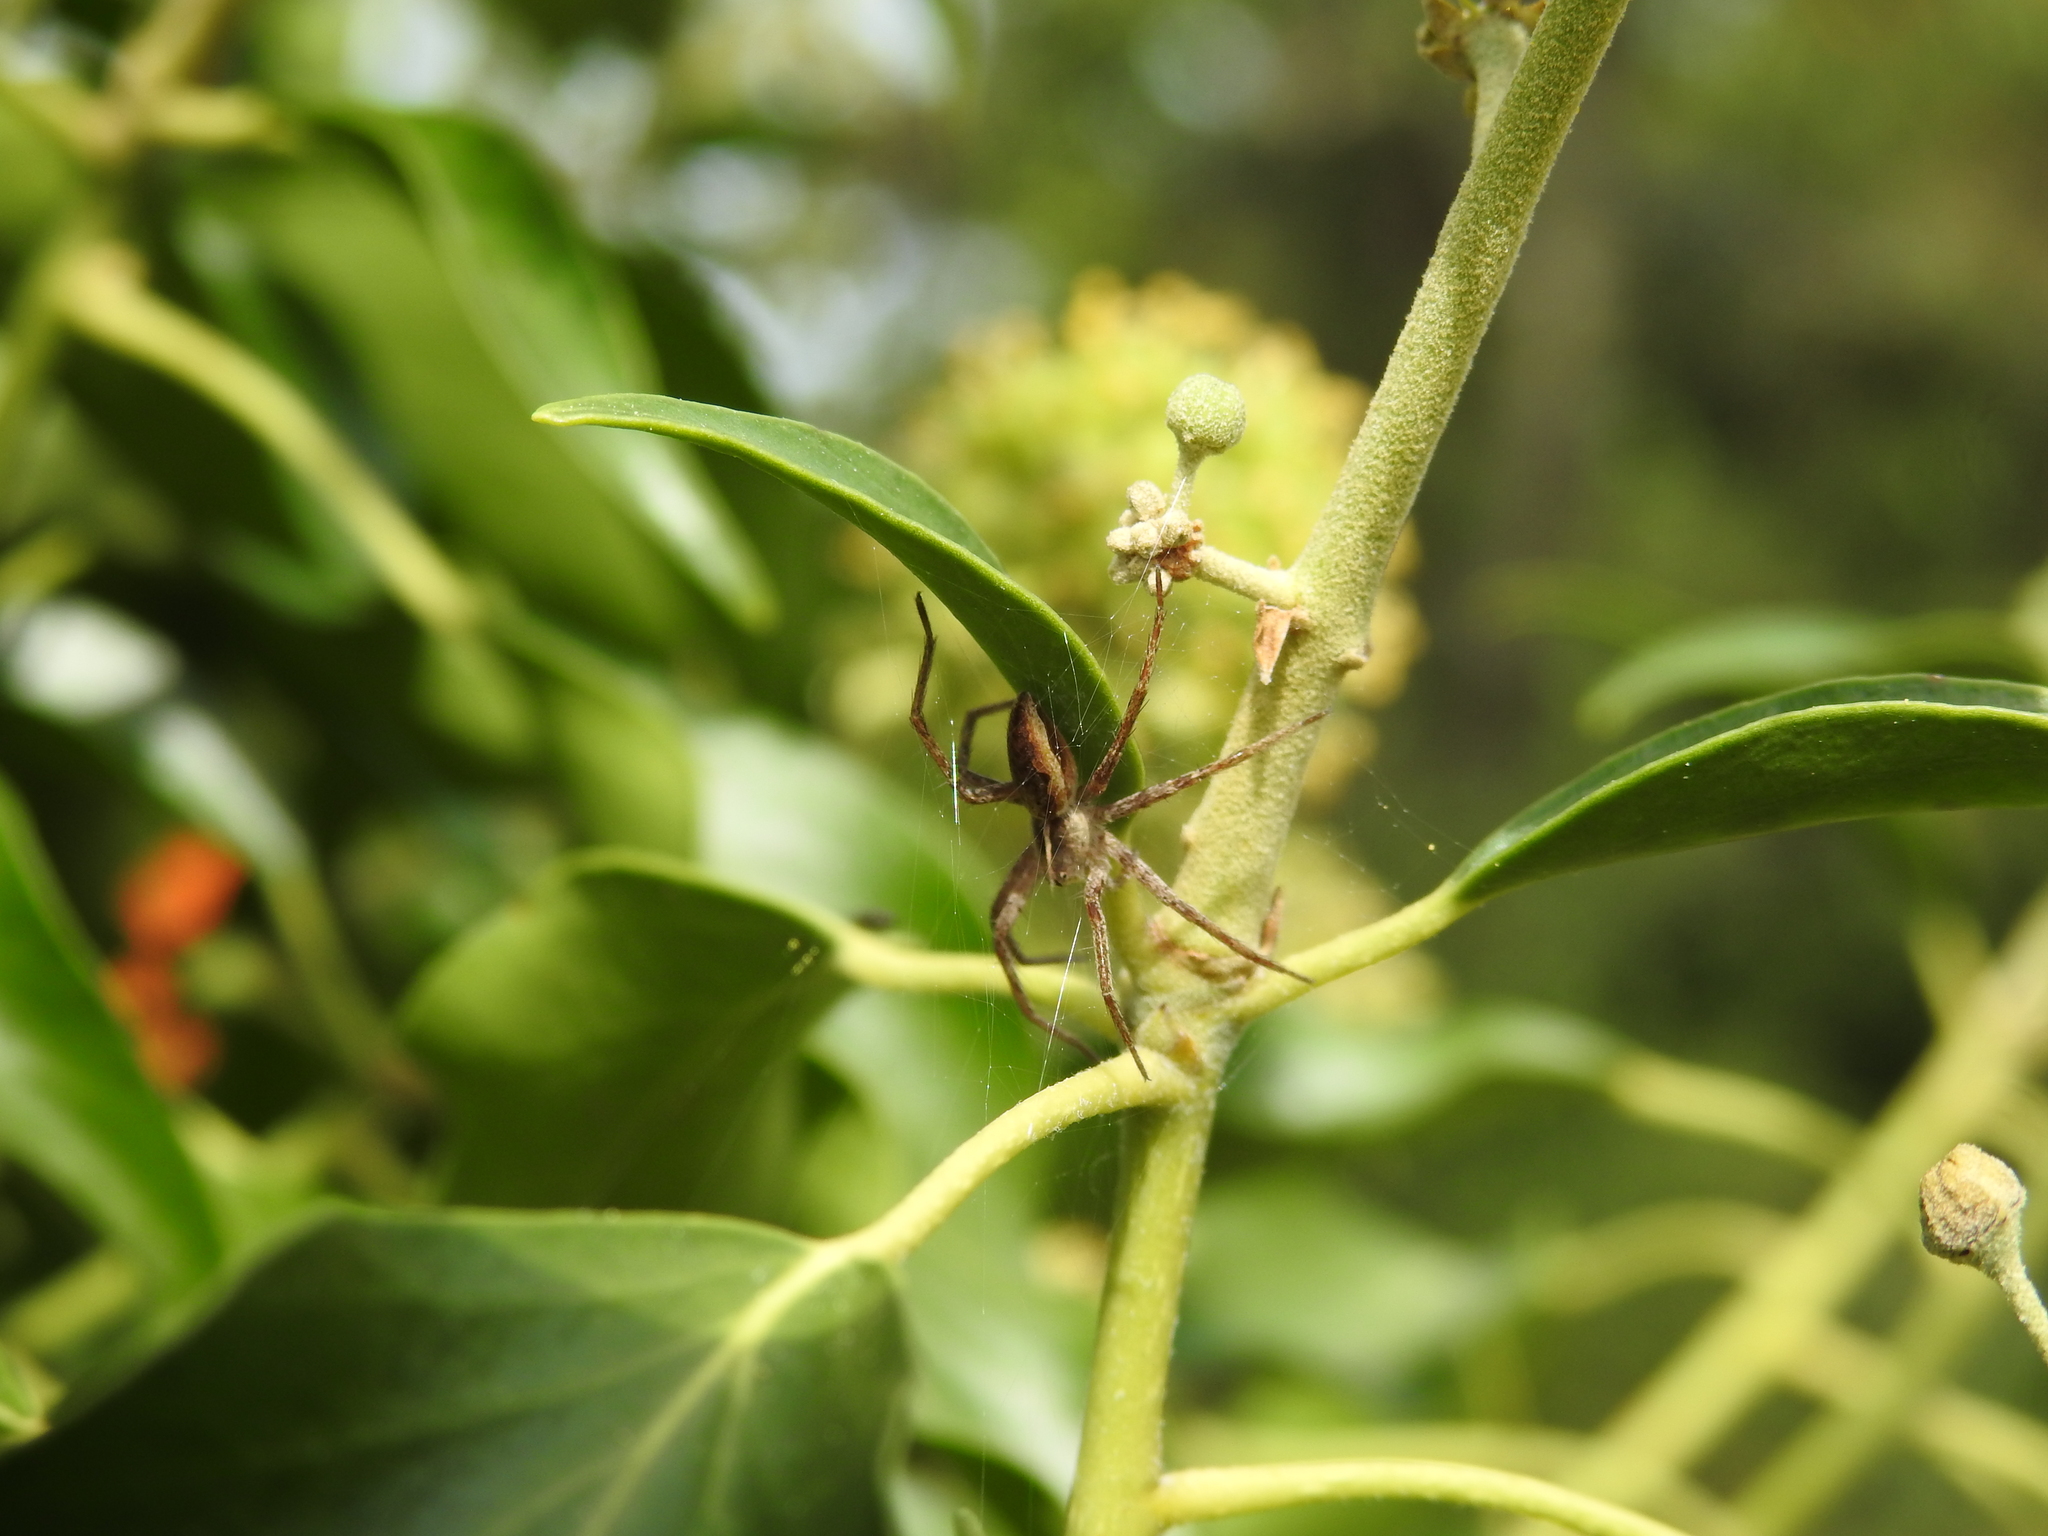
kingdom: Animalia
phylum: Arthropoda
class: Arachnida
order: Araneae
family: Pisauridae
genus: Pisaura
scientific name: Pisaura mirabilis
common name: Tent spider
